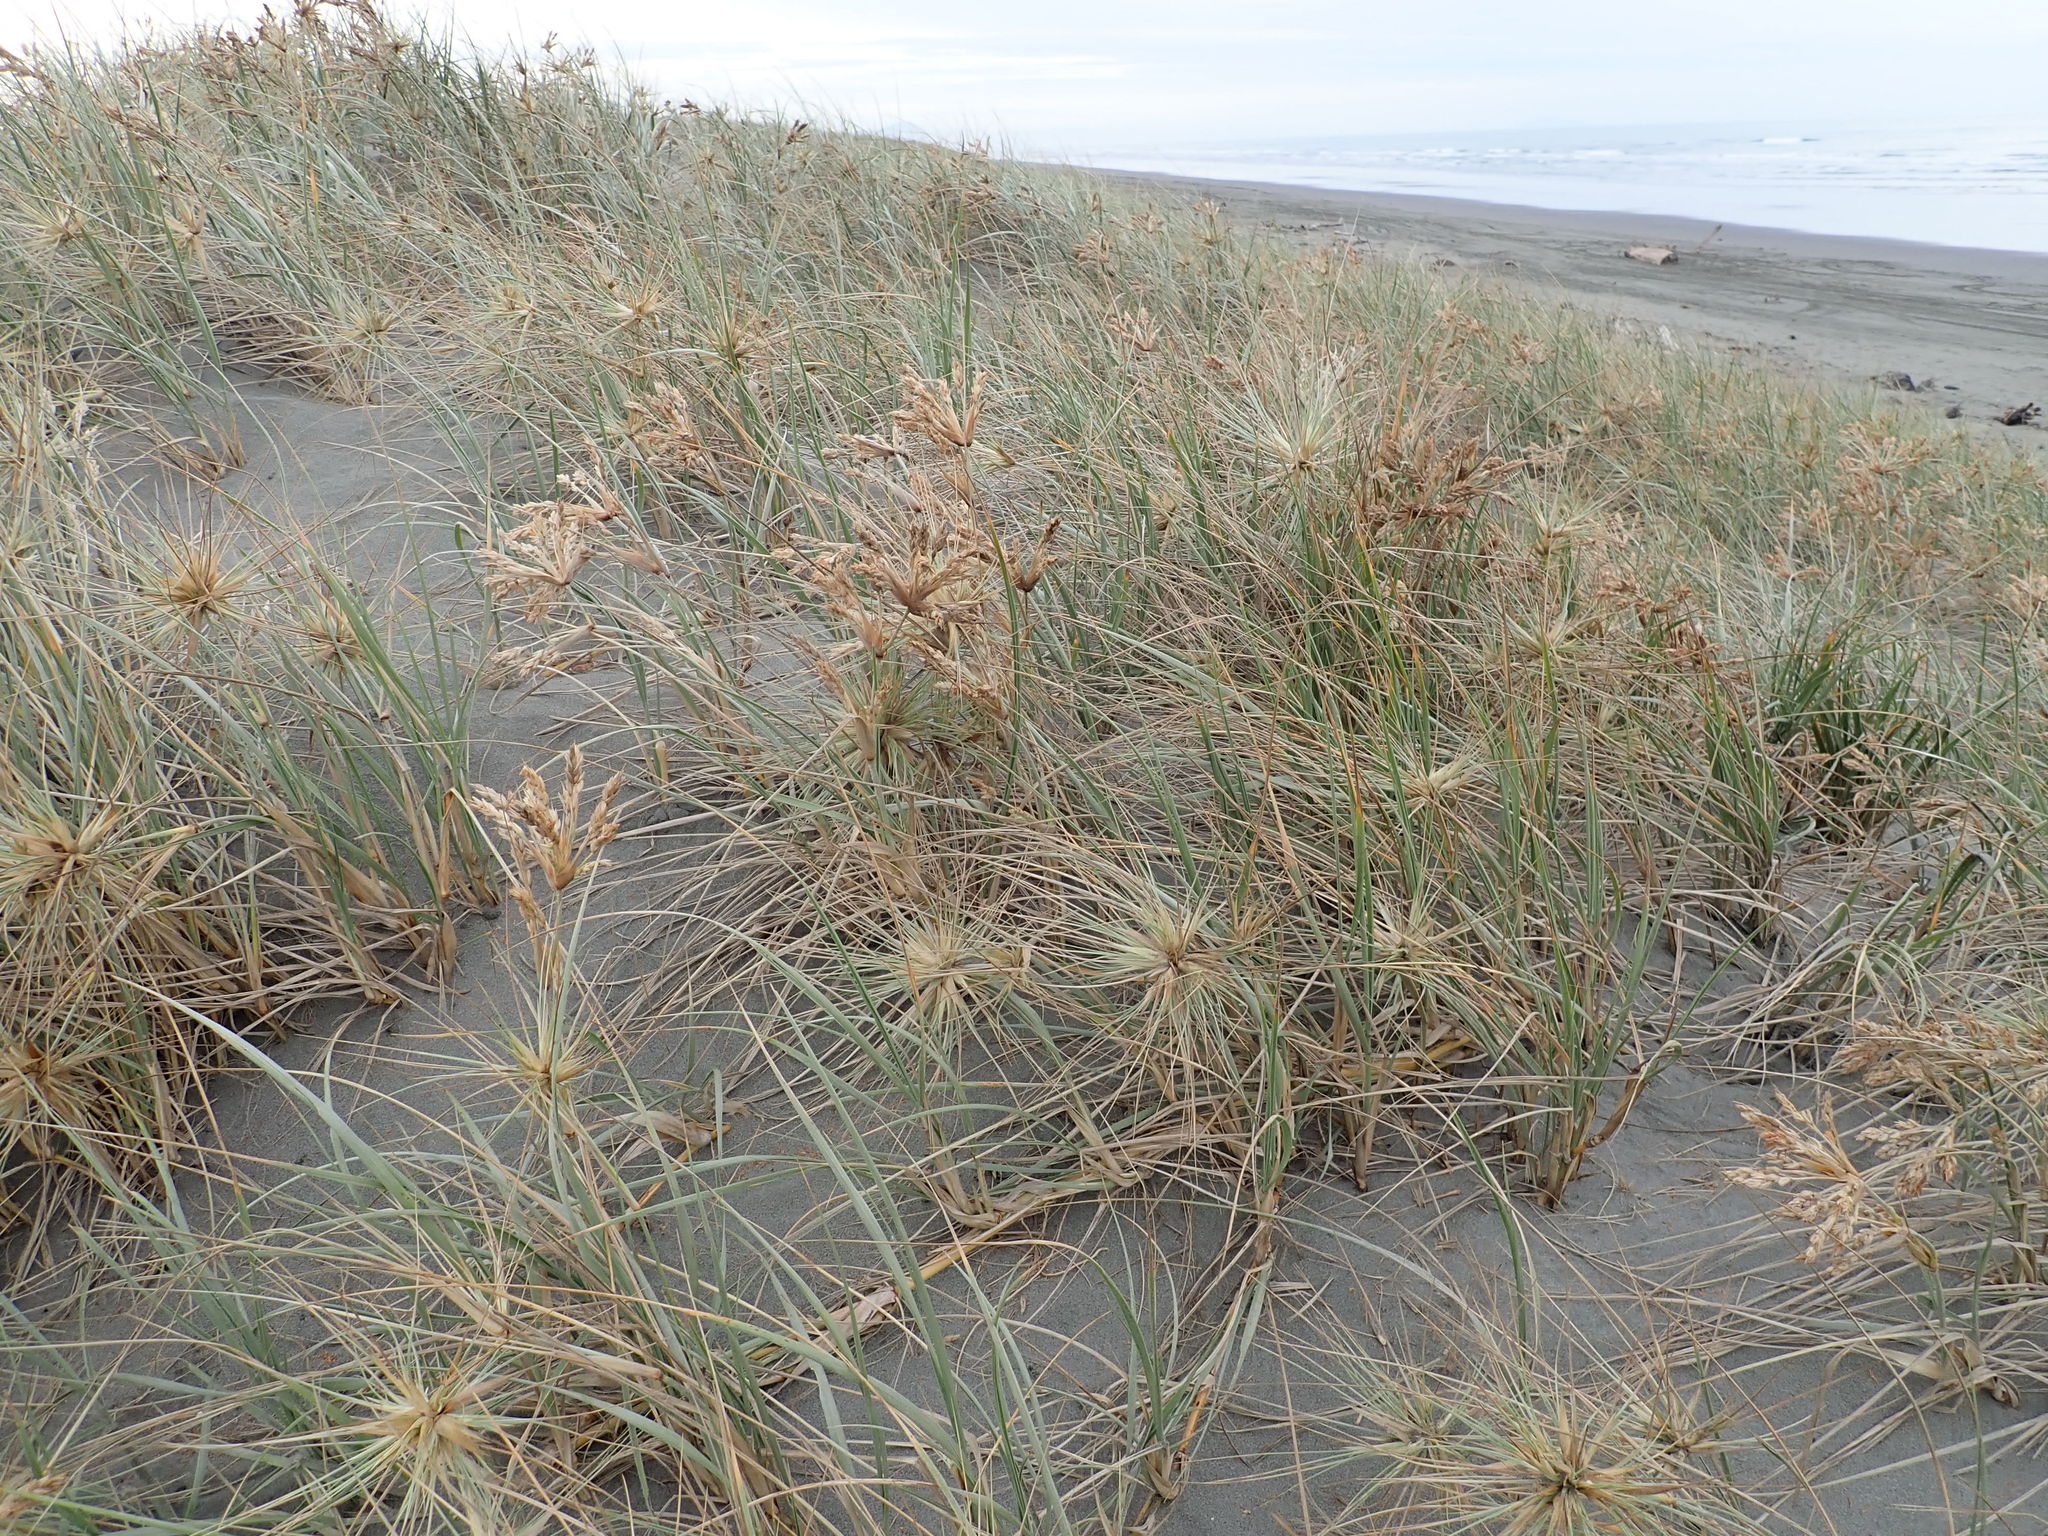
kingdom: Plantae
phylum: Tracheophyta
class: Liliopsida
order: Poales
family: Poaceae
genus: Spinifex
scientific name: Spinifex sericeus
